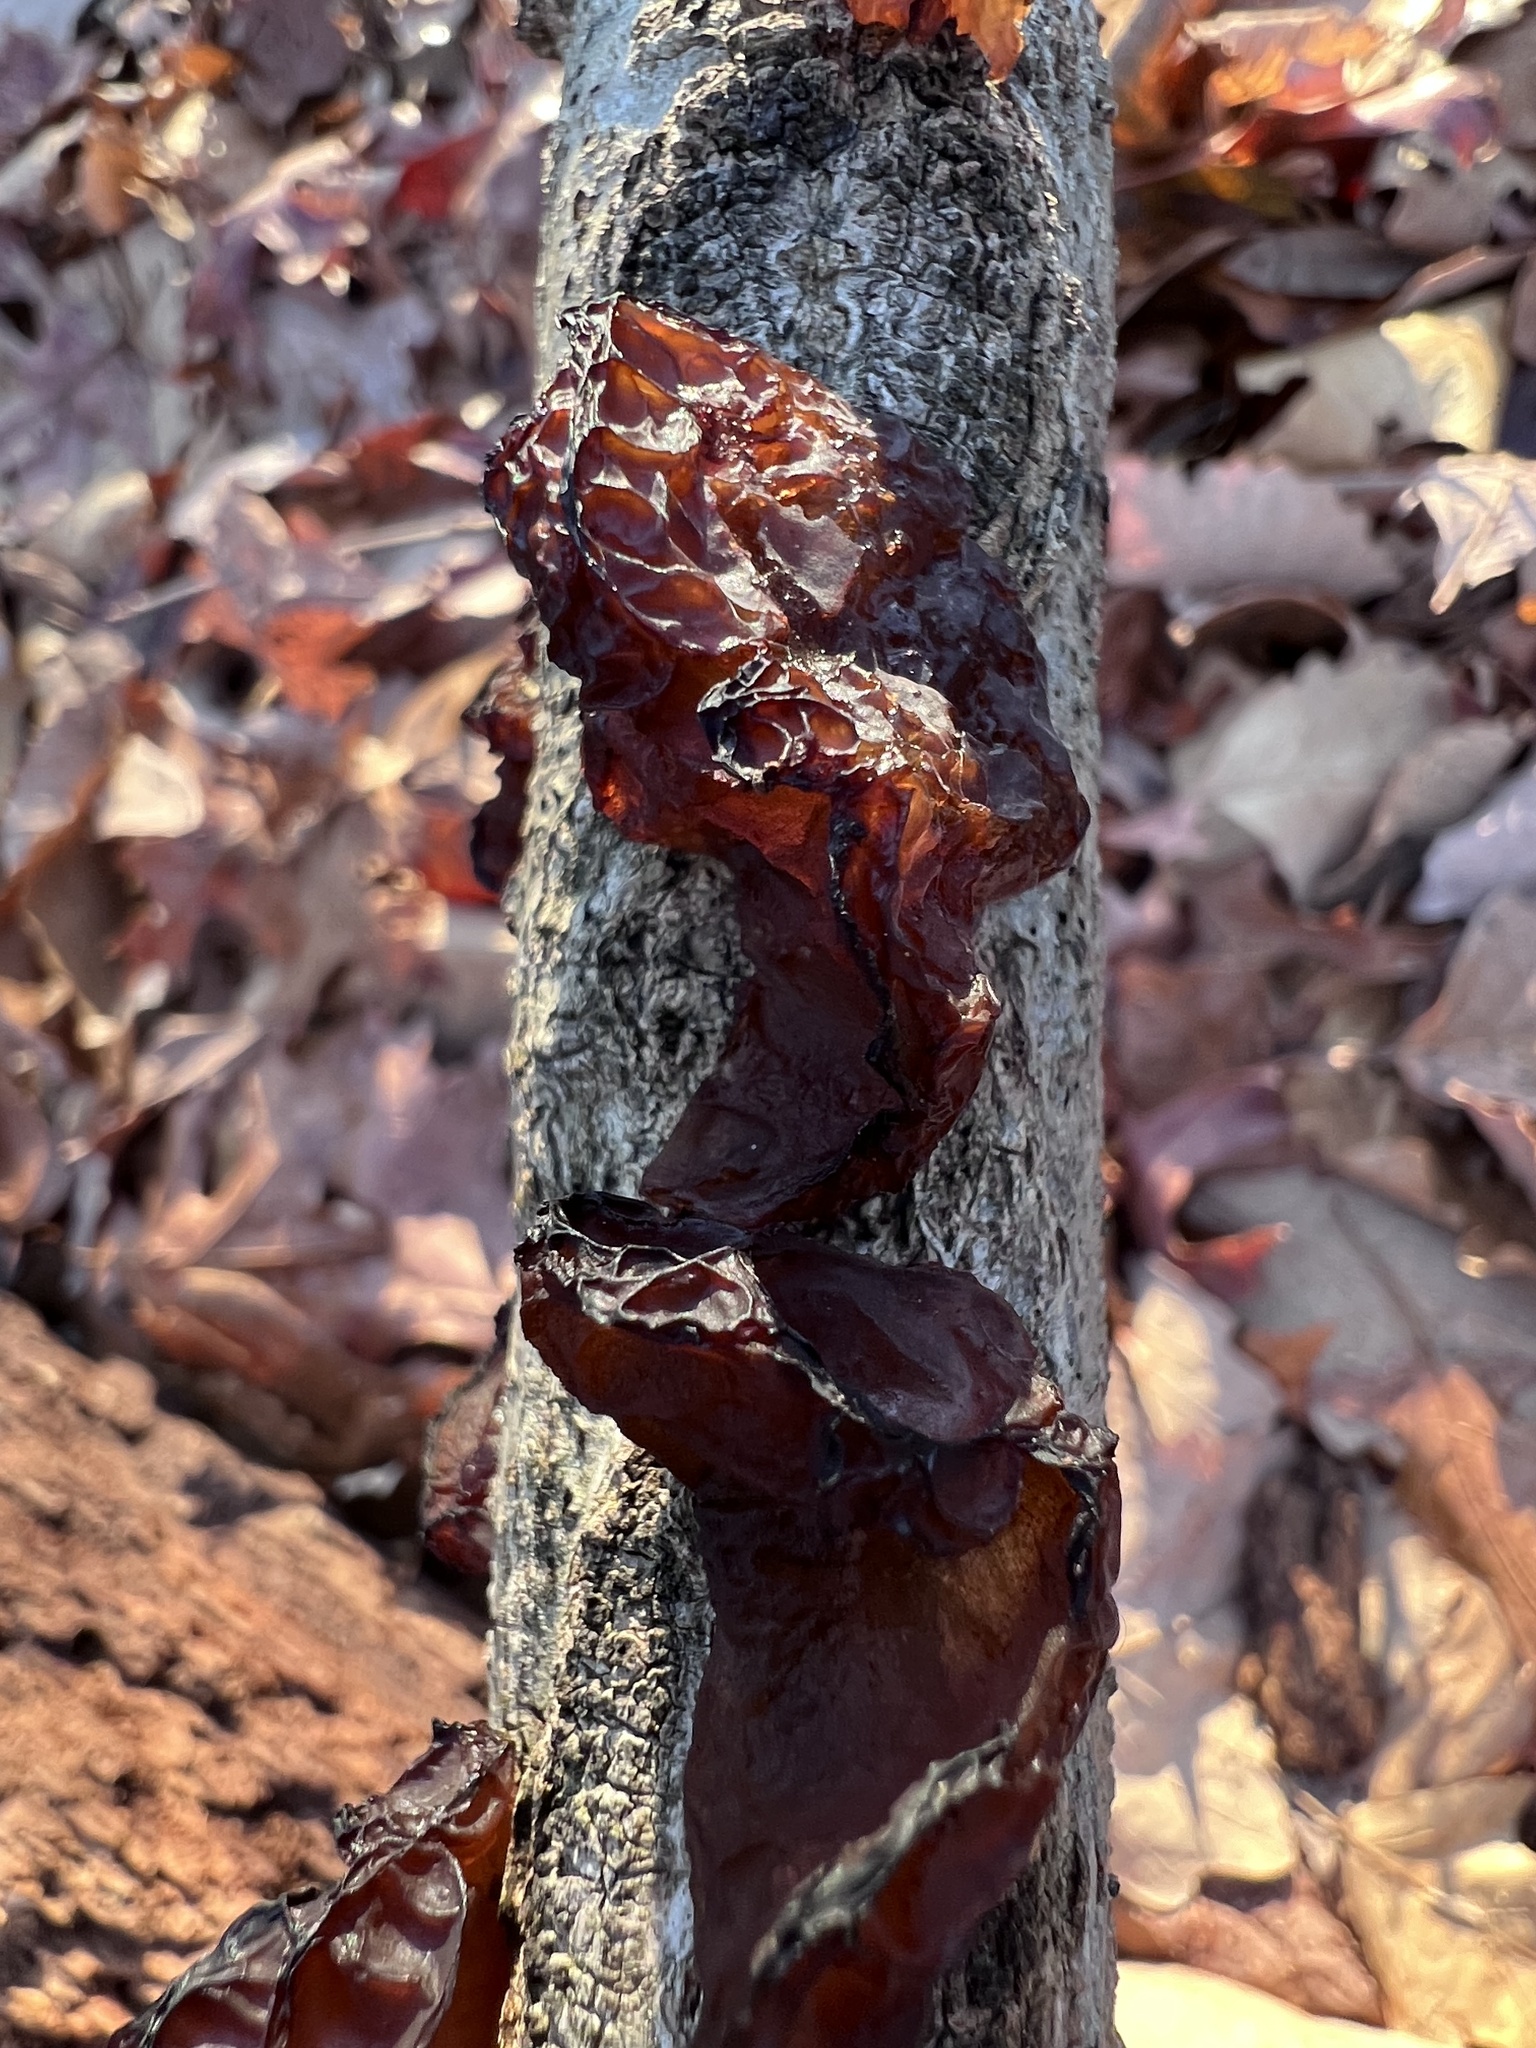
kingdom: Fungi
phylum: Basidiomycota
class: Agaricomycetes
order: Auriculariales
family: Auriculariaceae
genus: Exidia
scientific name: Exidia
